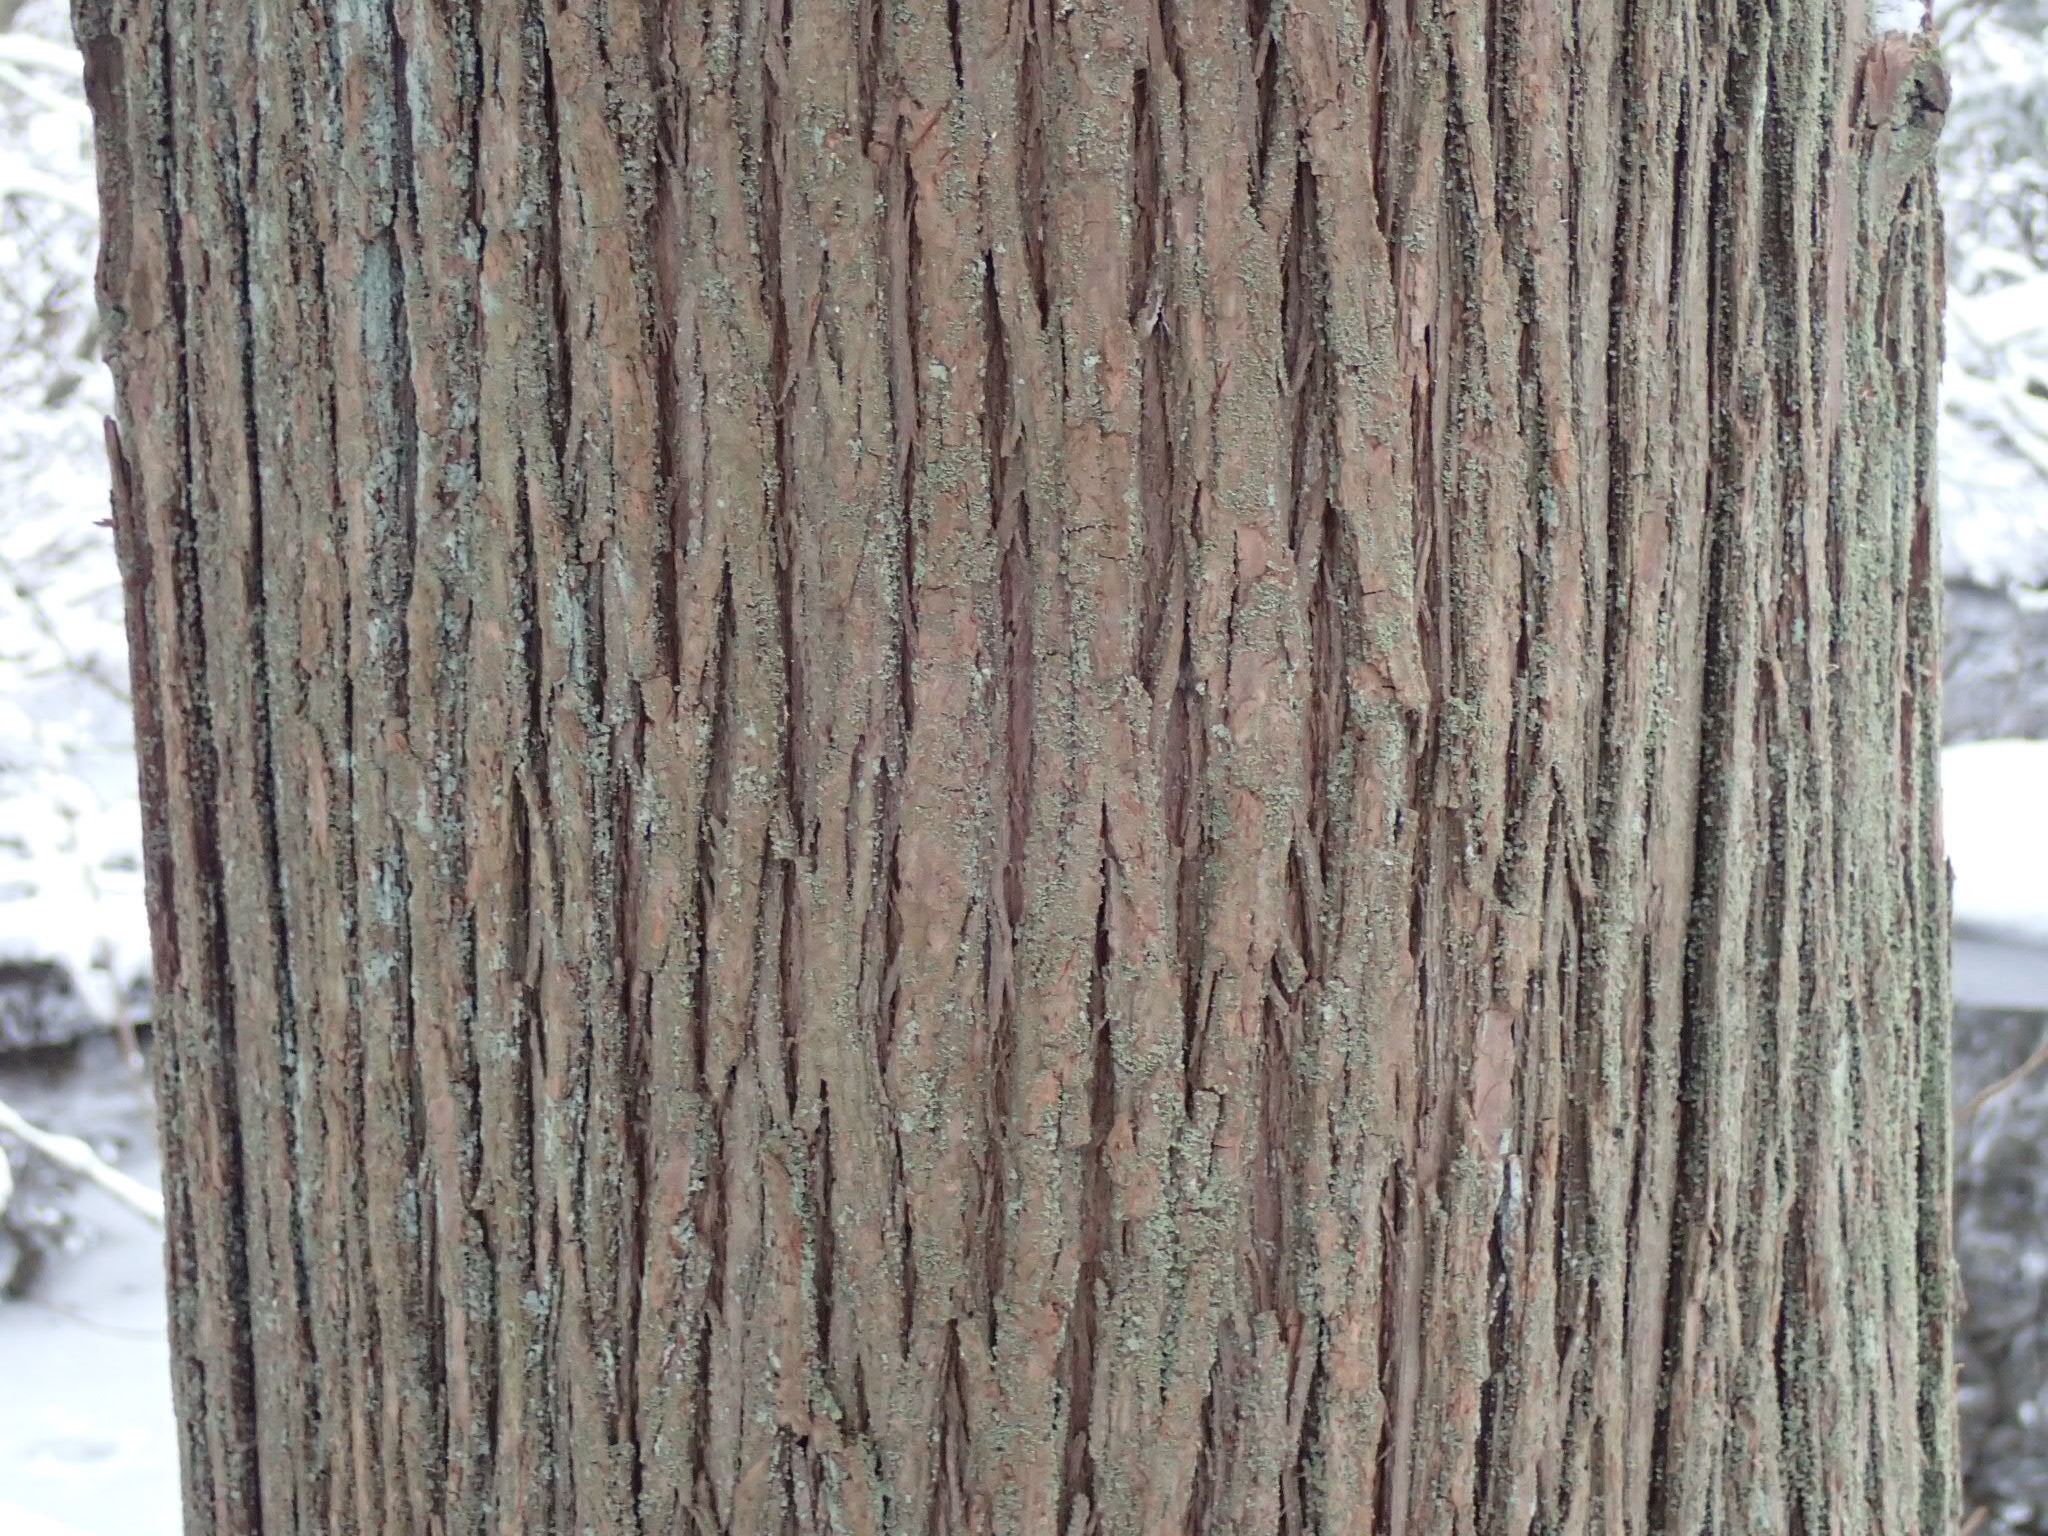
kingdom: Plantae
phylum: Tracheophyta
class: Pinopsida
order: Pinales
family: Cupressaceae
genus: Chamaecyparis
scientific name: Chamaecyparis thyoides
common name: Atlantic white cedar
